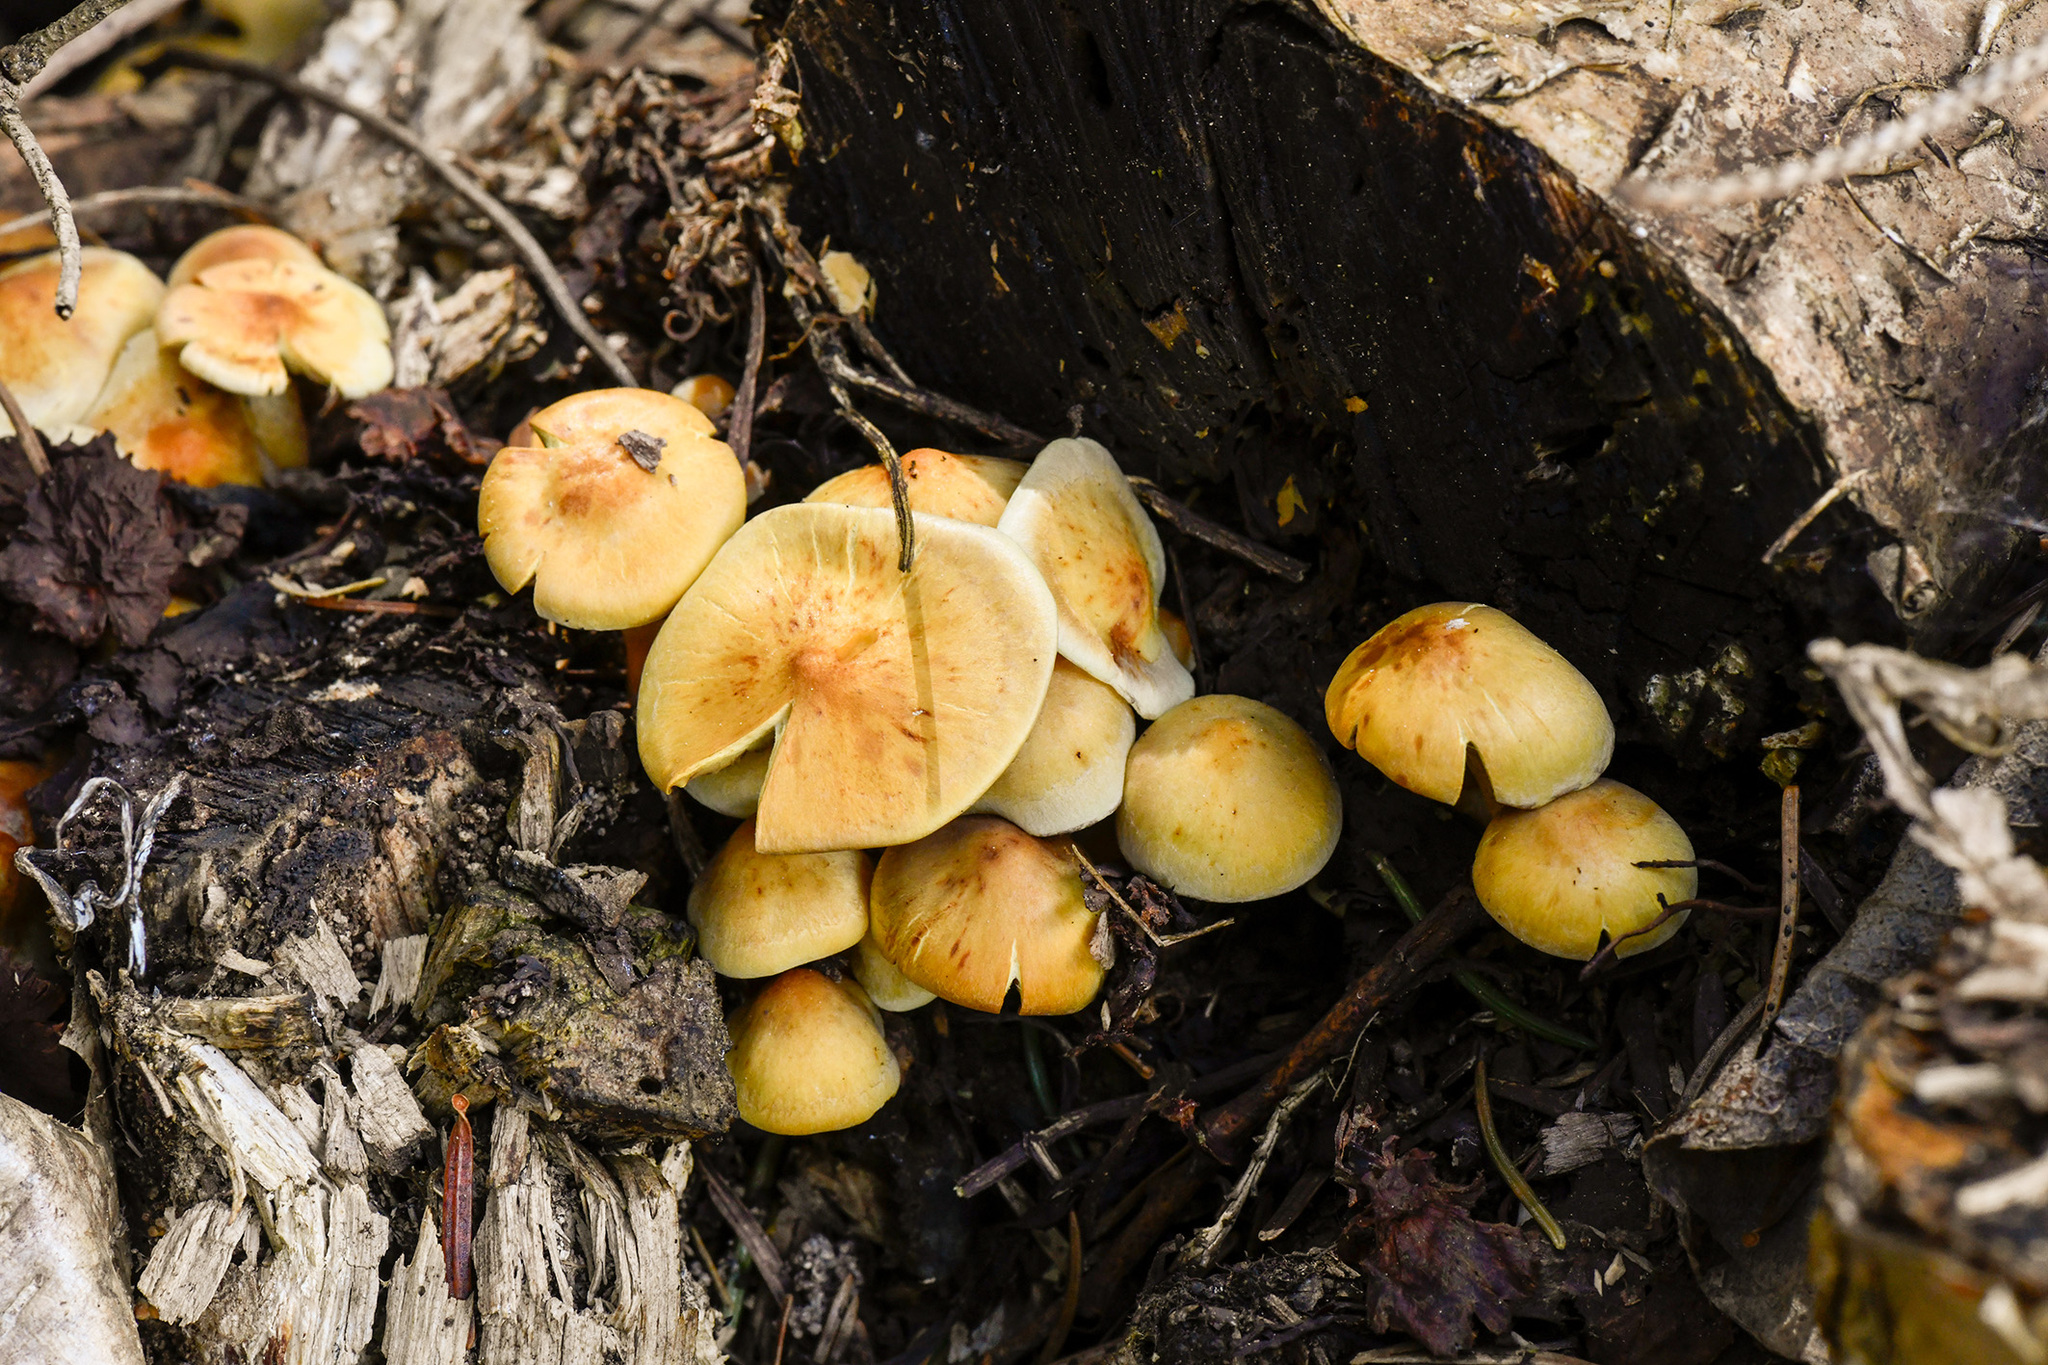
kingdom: Fungi
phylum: Basidiomycota
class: Agaricomycetes
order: Agaricales
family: Strophariaceae
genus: Hypholoma
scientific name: Hypholoma fasciculare
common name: Sulphur tuft
